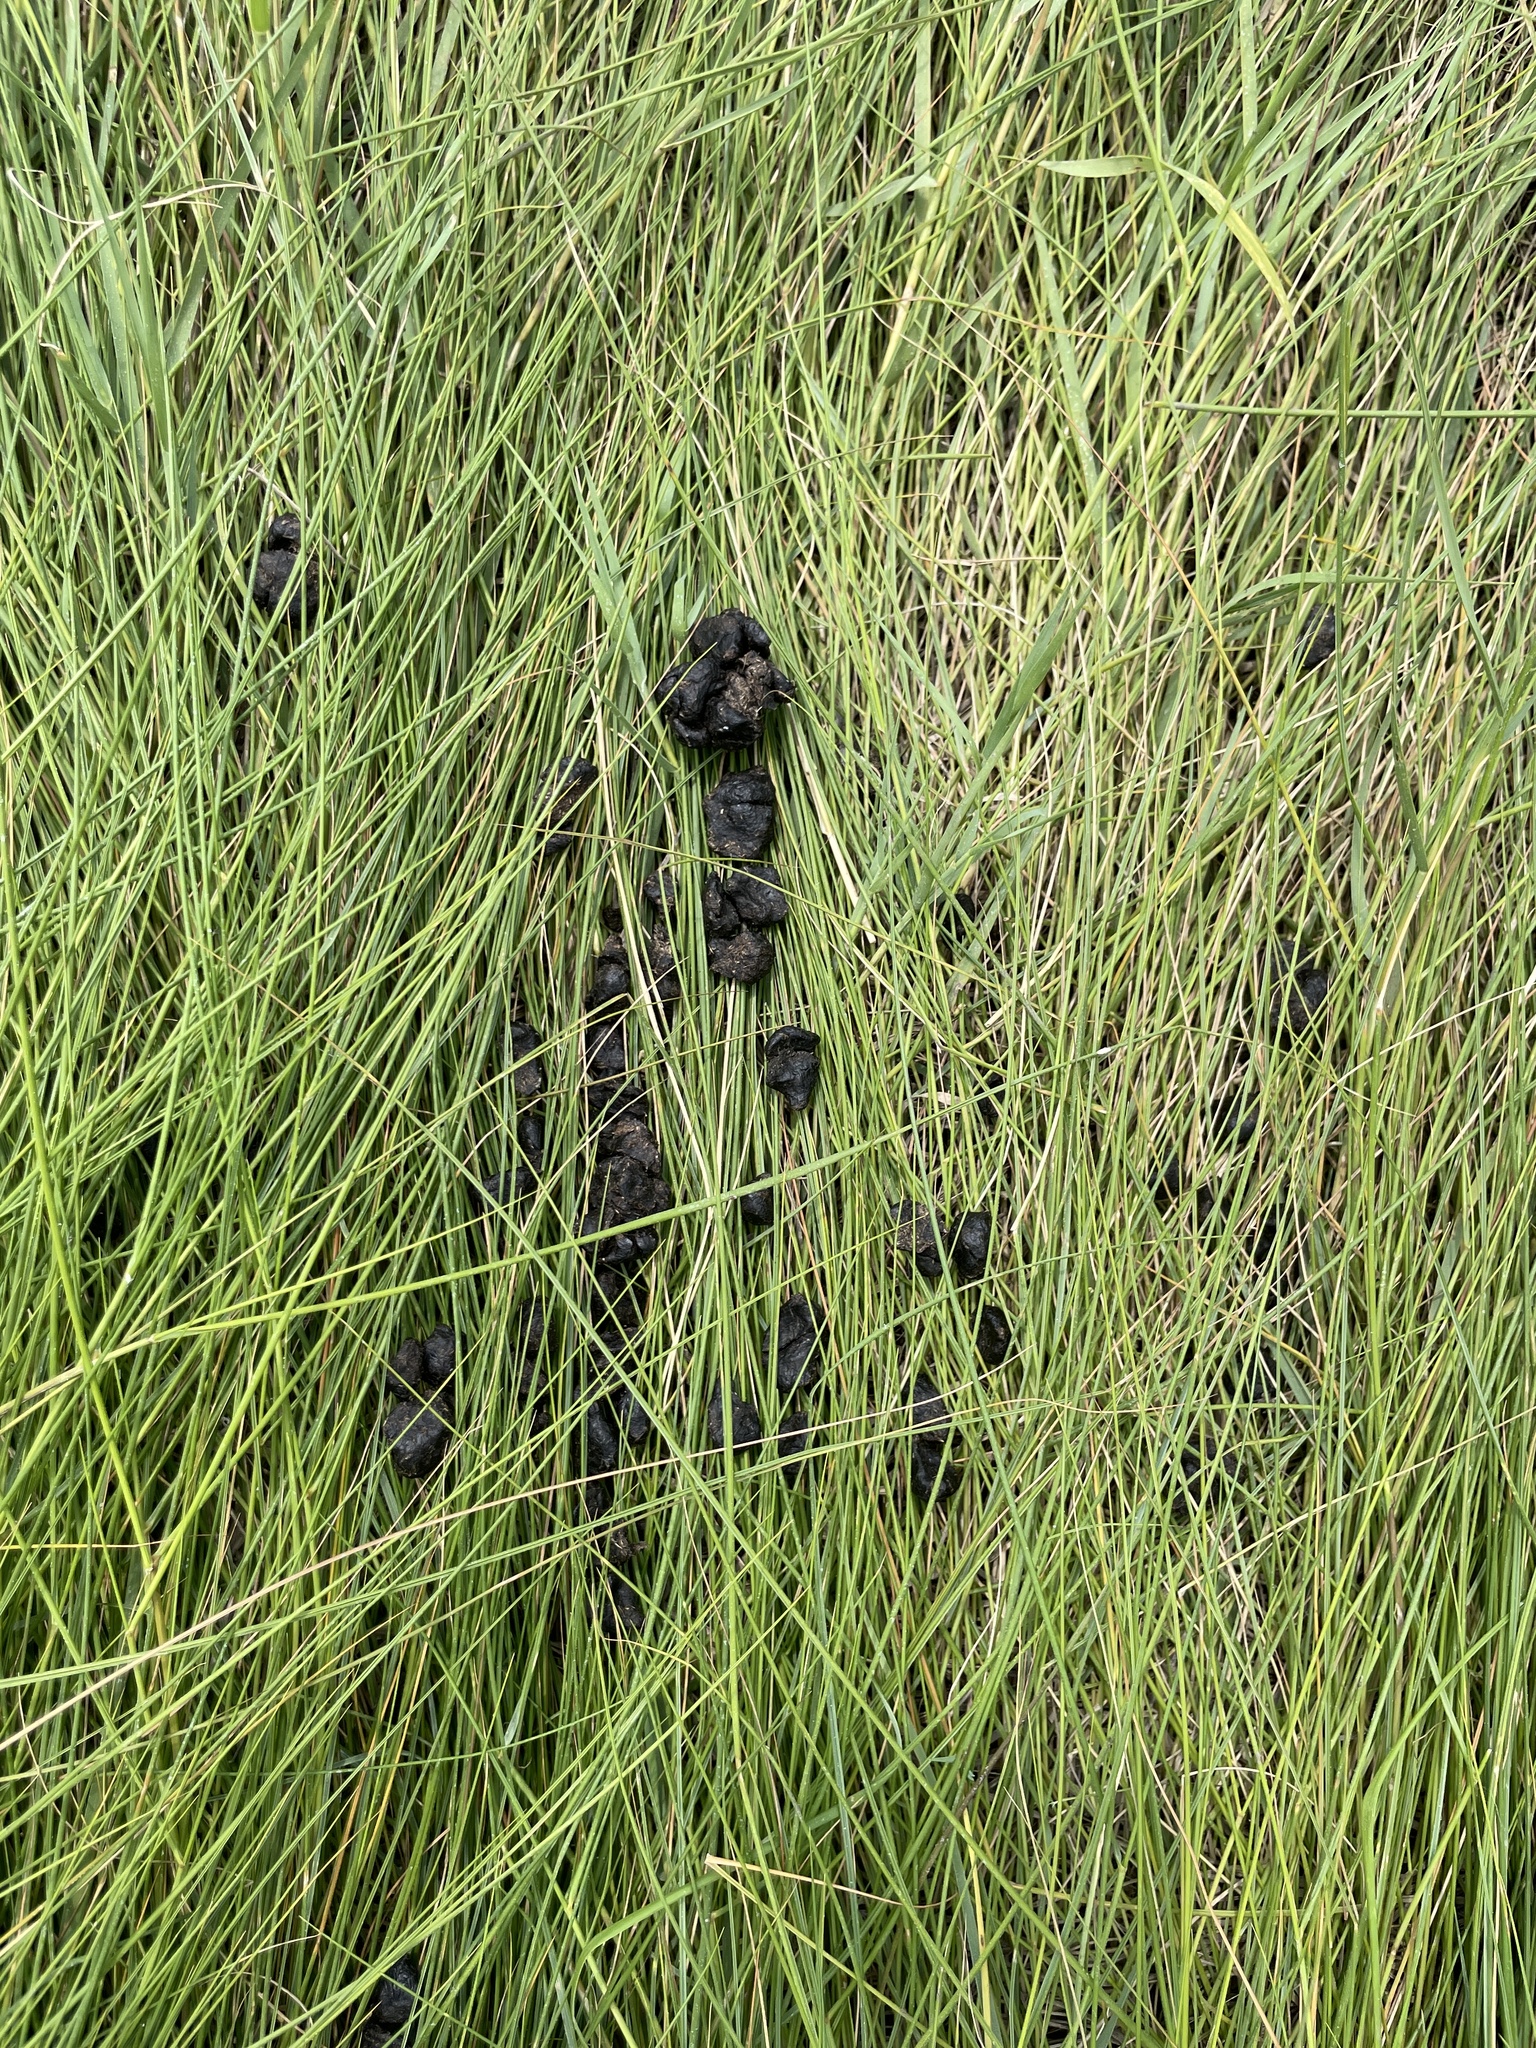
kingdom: Animalia
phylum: Chordata
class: Mammalia
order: Artiodactyla
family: Cervidae
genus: Odocoileus
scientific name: Odocoileus virginianus
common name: White-tailed deer
